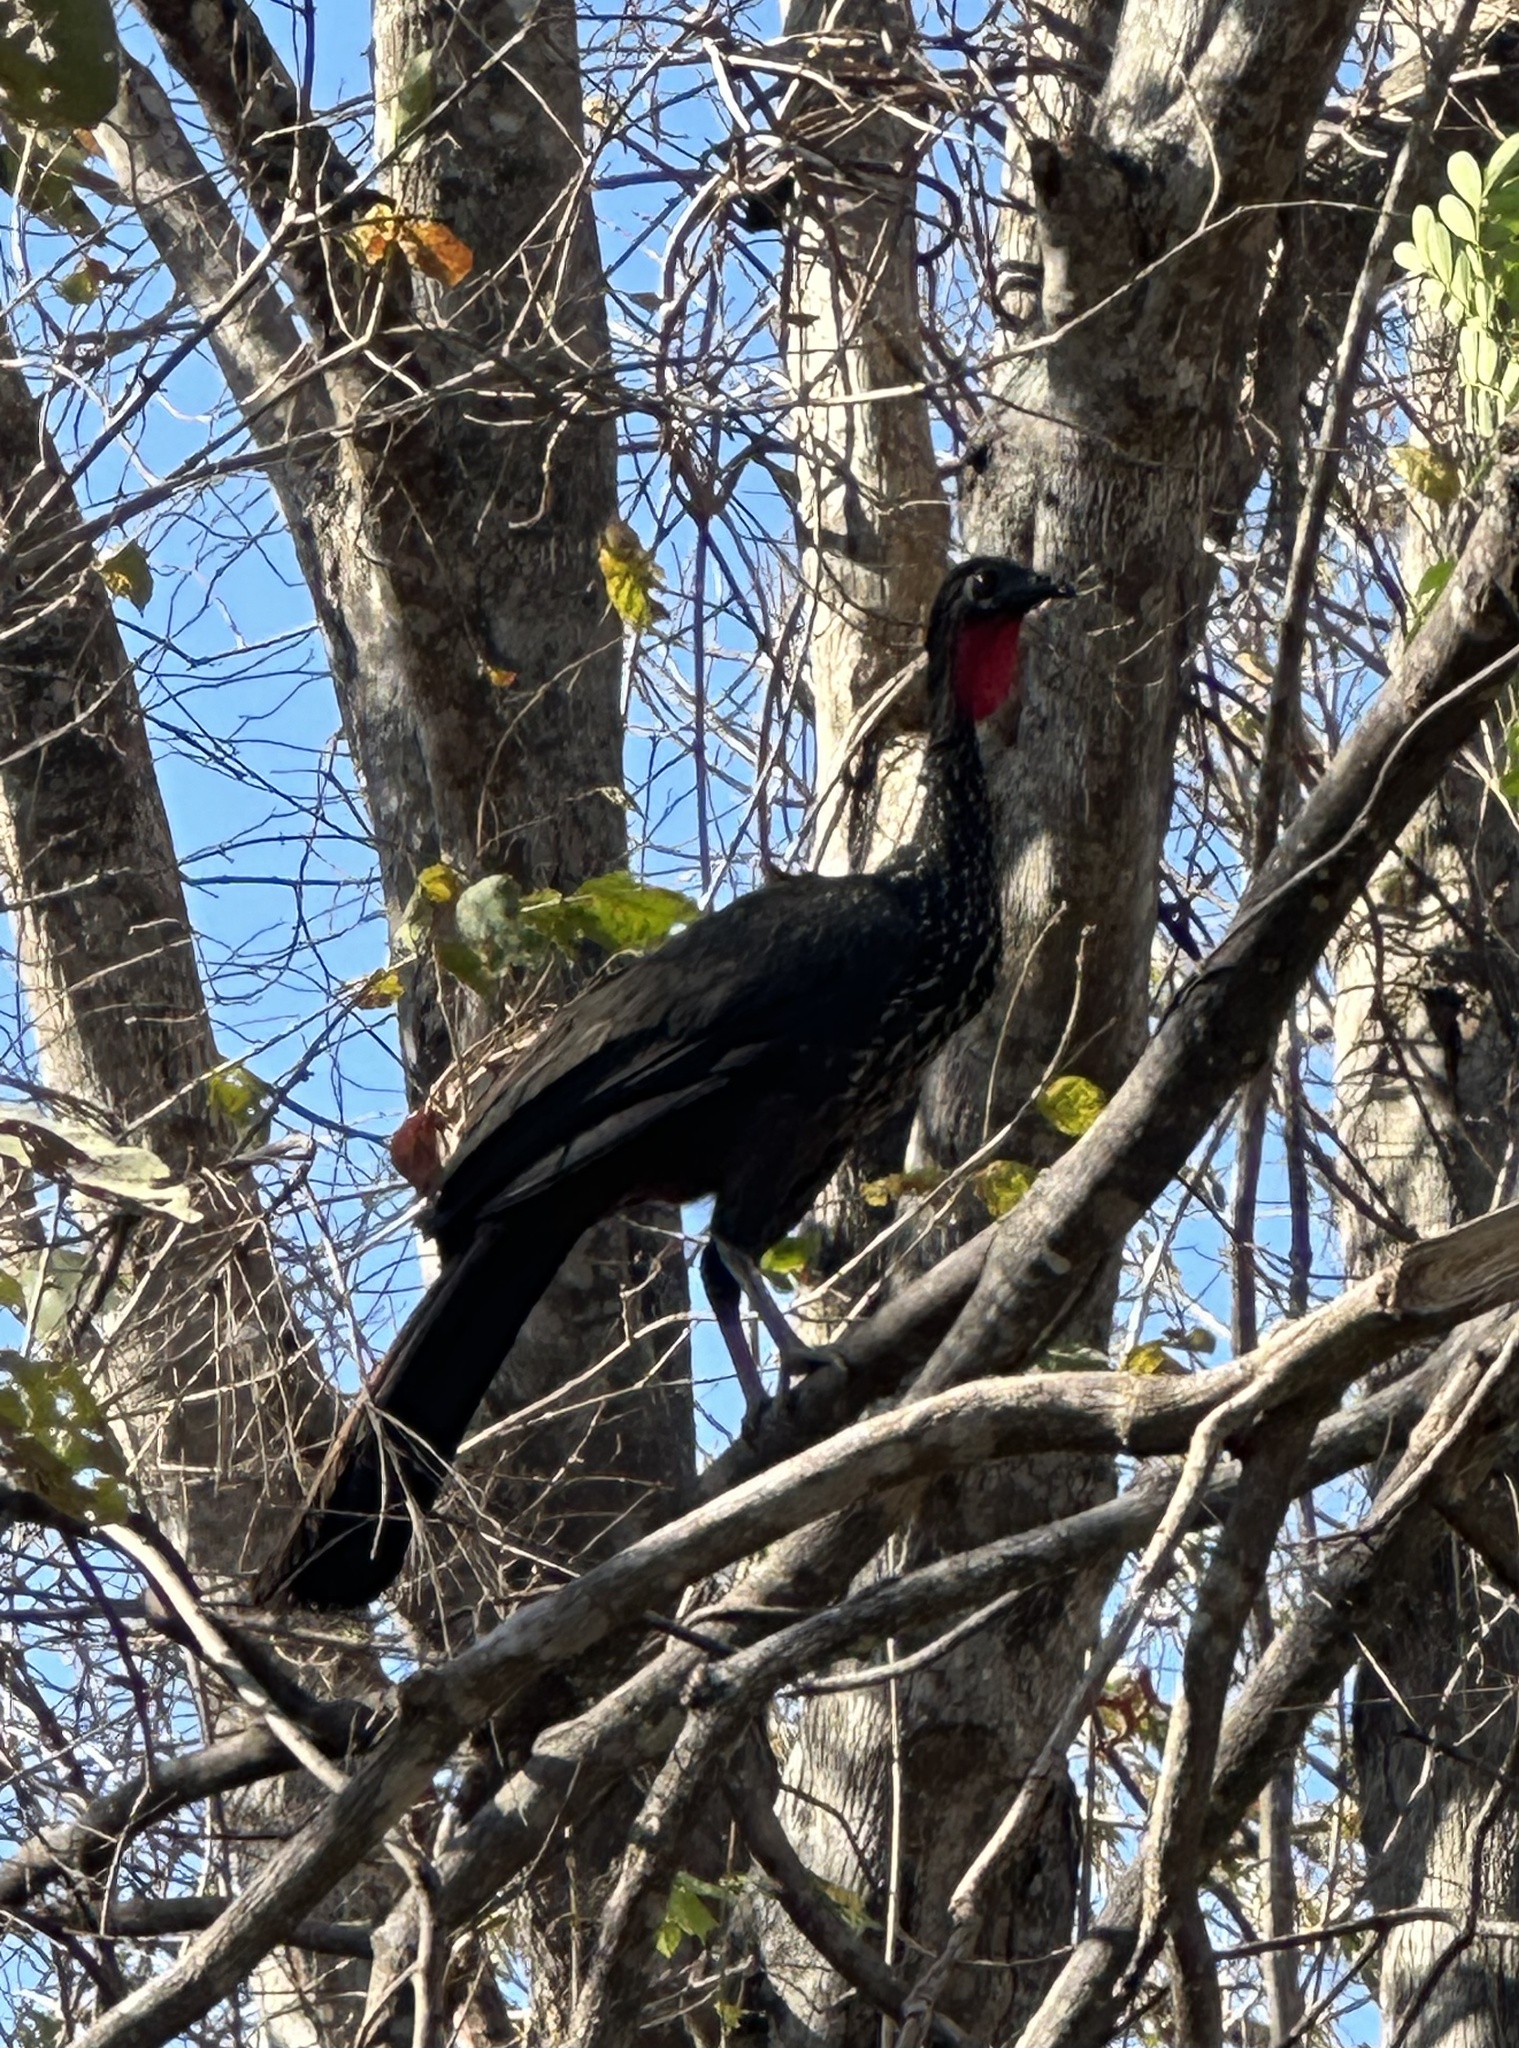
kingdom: Animalia
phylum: Chordata
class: Aves
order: Galliformes
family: Cracidae
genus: Penelope
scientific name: Penelope purpurascens
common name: Crested guan
